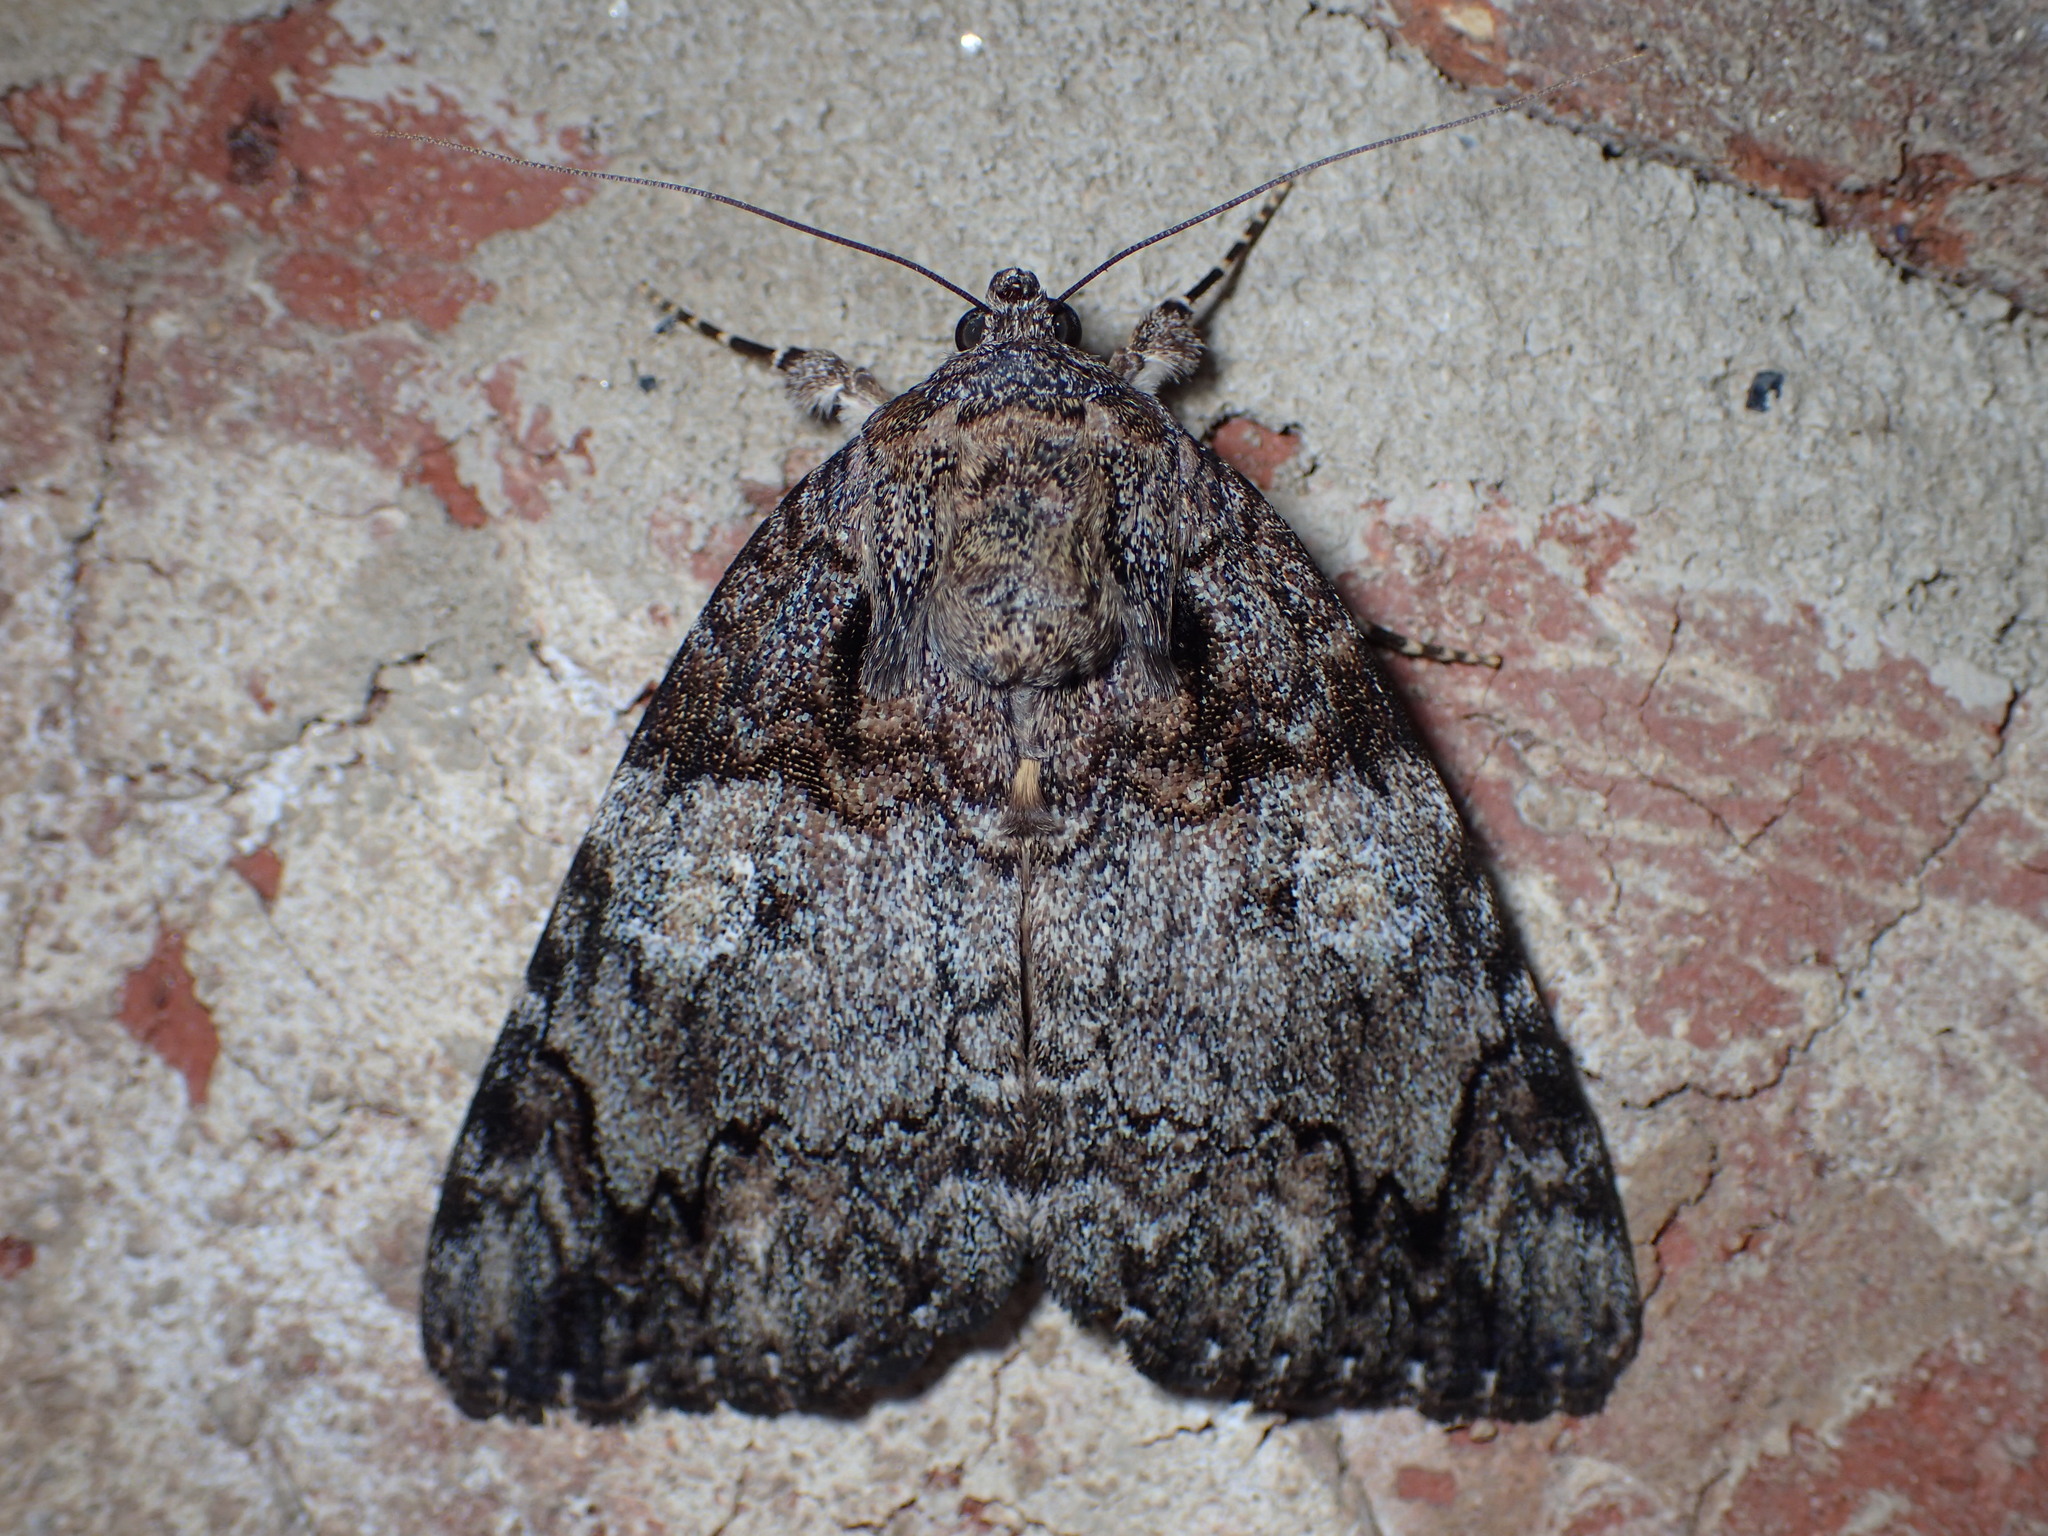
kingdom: Animalia
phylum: Arthropoda
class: Insecta
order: Lepidoptera
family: Erebidae
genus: Catocala
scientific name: Catocala ilia
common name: Ilia underwing
